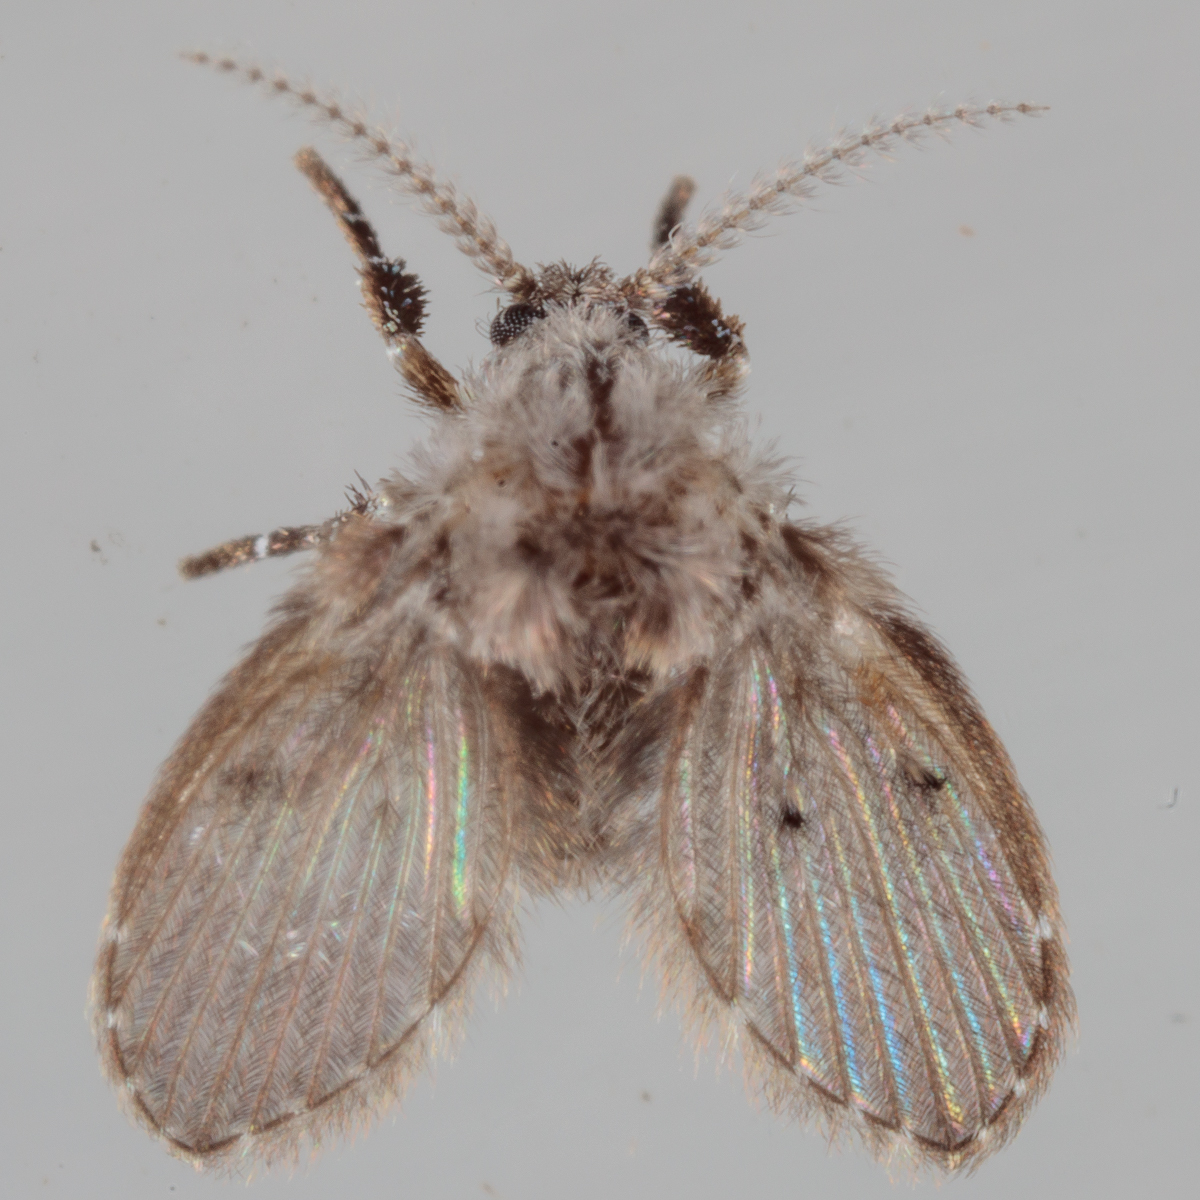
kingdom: Animalia
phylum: Arthropoda
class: Insecta
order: Diptera
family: Psychodidae
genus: Clogmia
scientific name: Clogmia albipunctatus
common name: White-spotted moth fly
